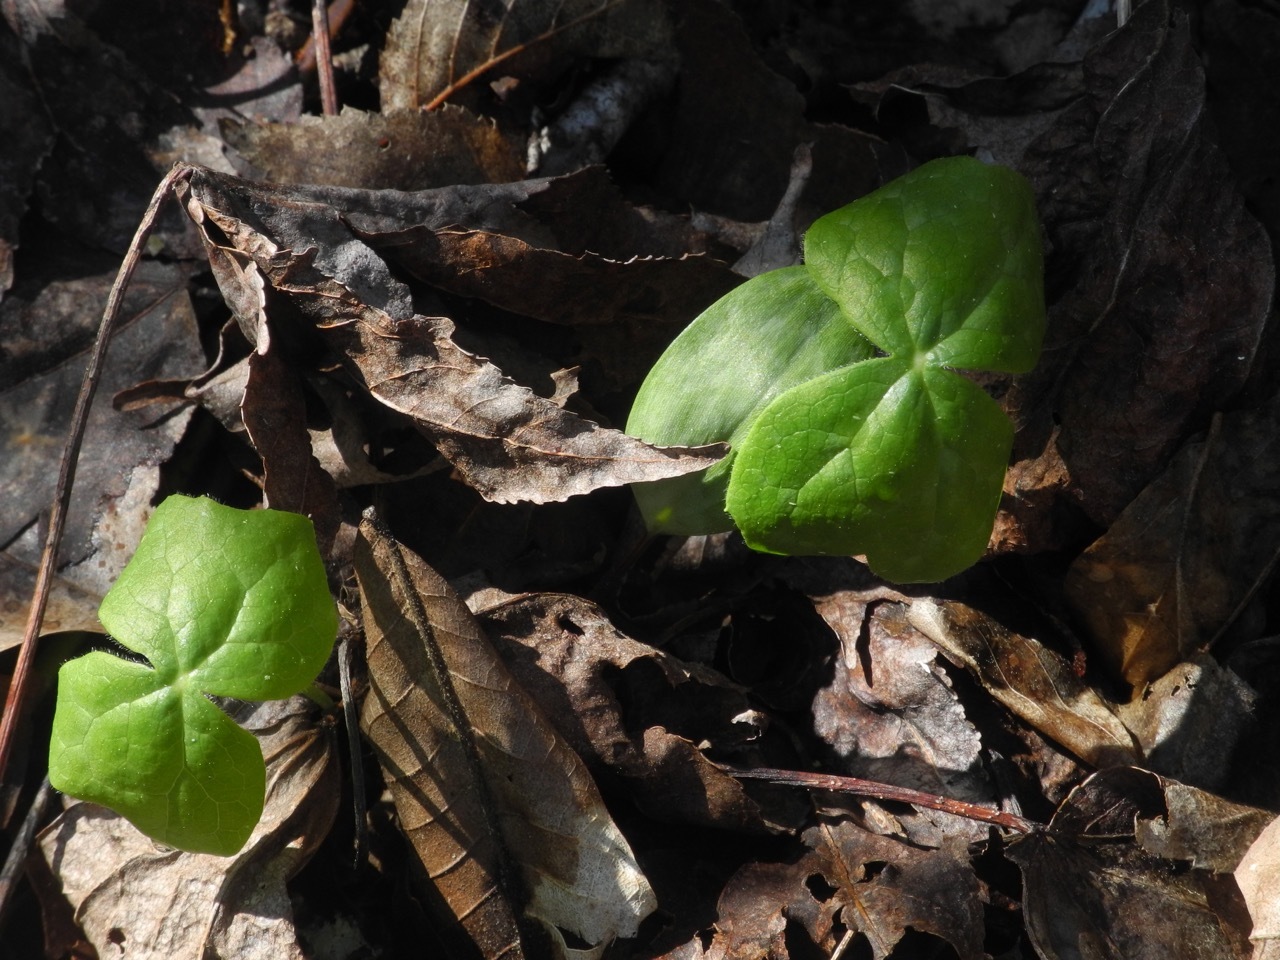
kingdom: Plantae
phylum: Tracheophyta
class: Magnoliopsida
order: Ranunculales
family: Berberidaceae
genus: Podophyllum
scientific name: Podophyllum peltatum
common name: Wild mandrake
